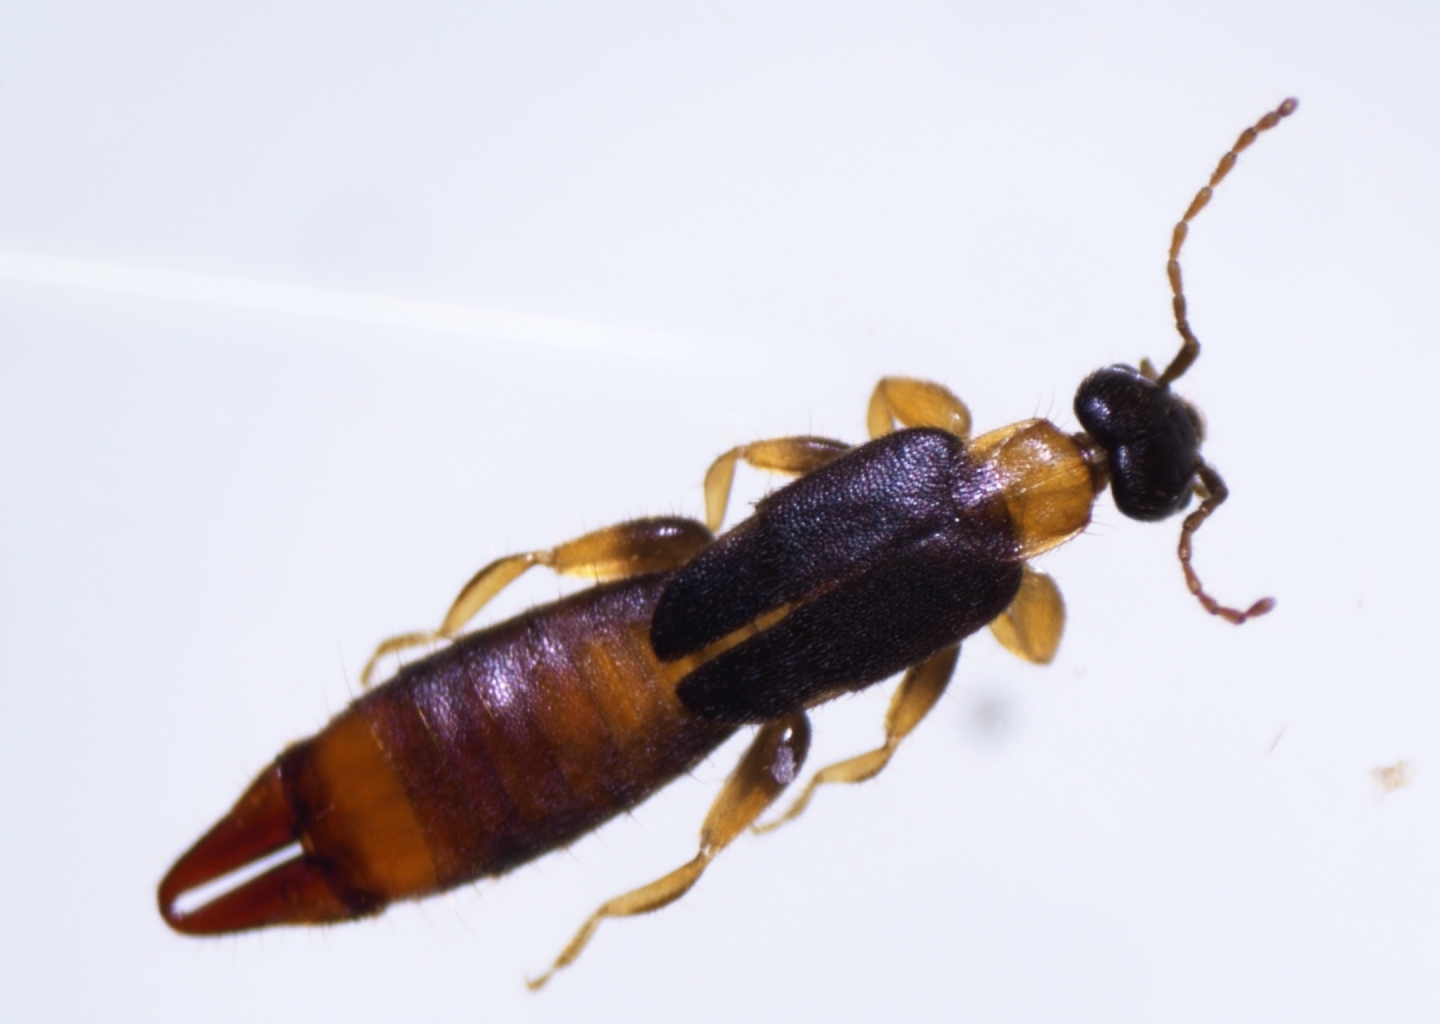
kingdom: Animalia
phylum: Arthropoda
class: Insecta
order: Dermaptera
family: Spongiphoridae
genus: Paralabella
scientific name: Paralabella curvicauda
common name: Earwig
